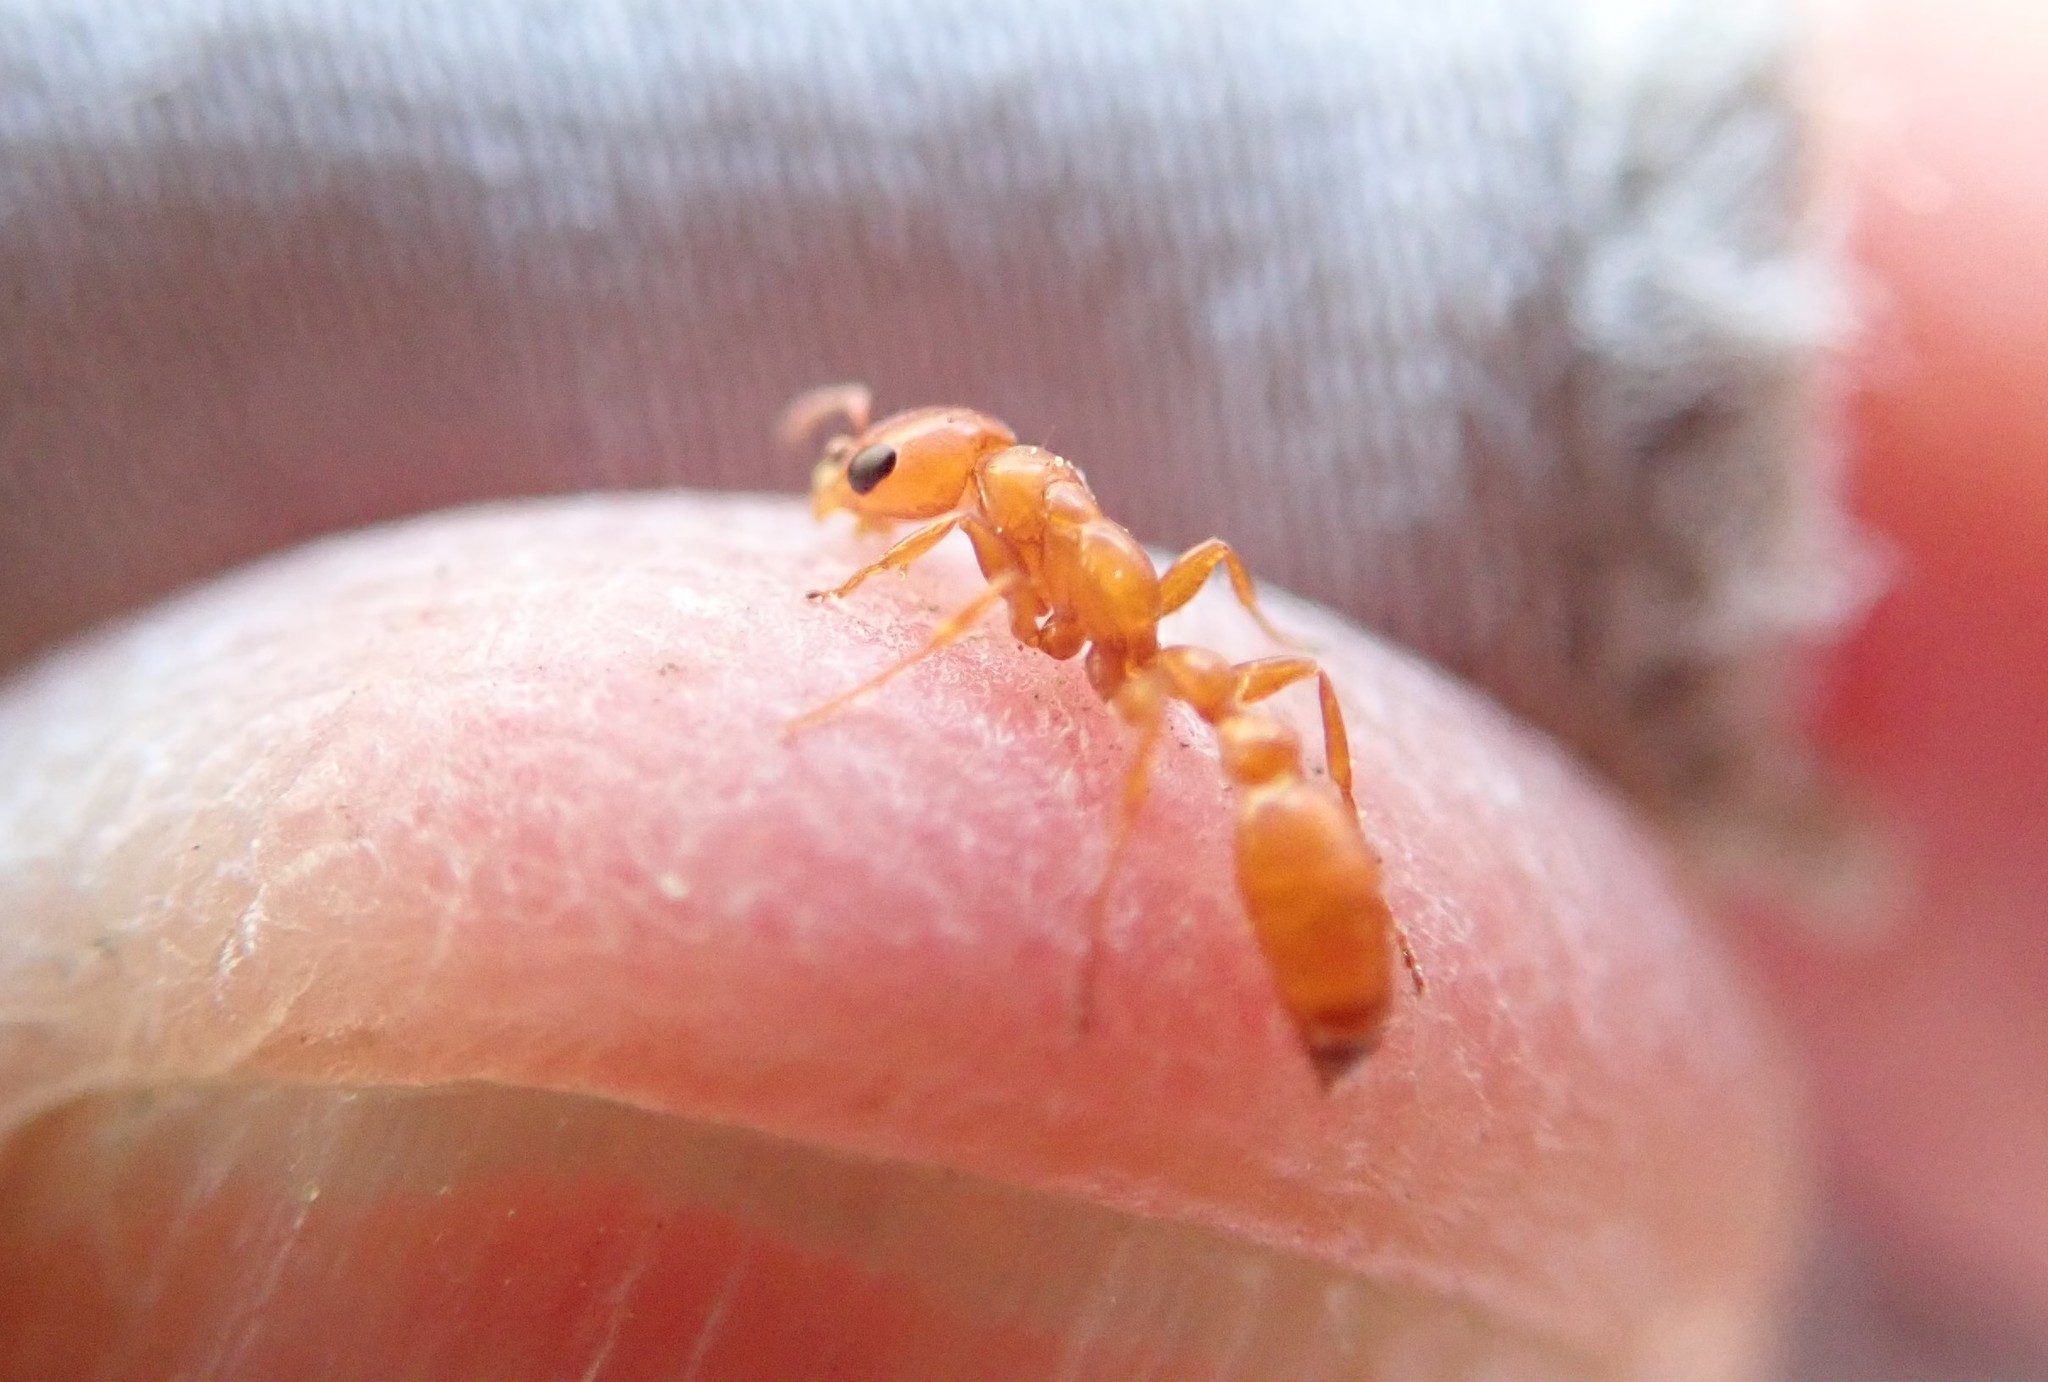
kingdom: Animalia
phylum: Arthropoda
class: Insecta
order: Hymenoptera
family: Formicidae
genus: Pseudomyrmex
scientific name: Pseudomyrmex apache
